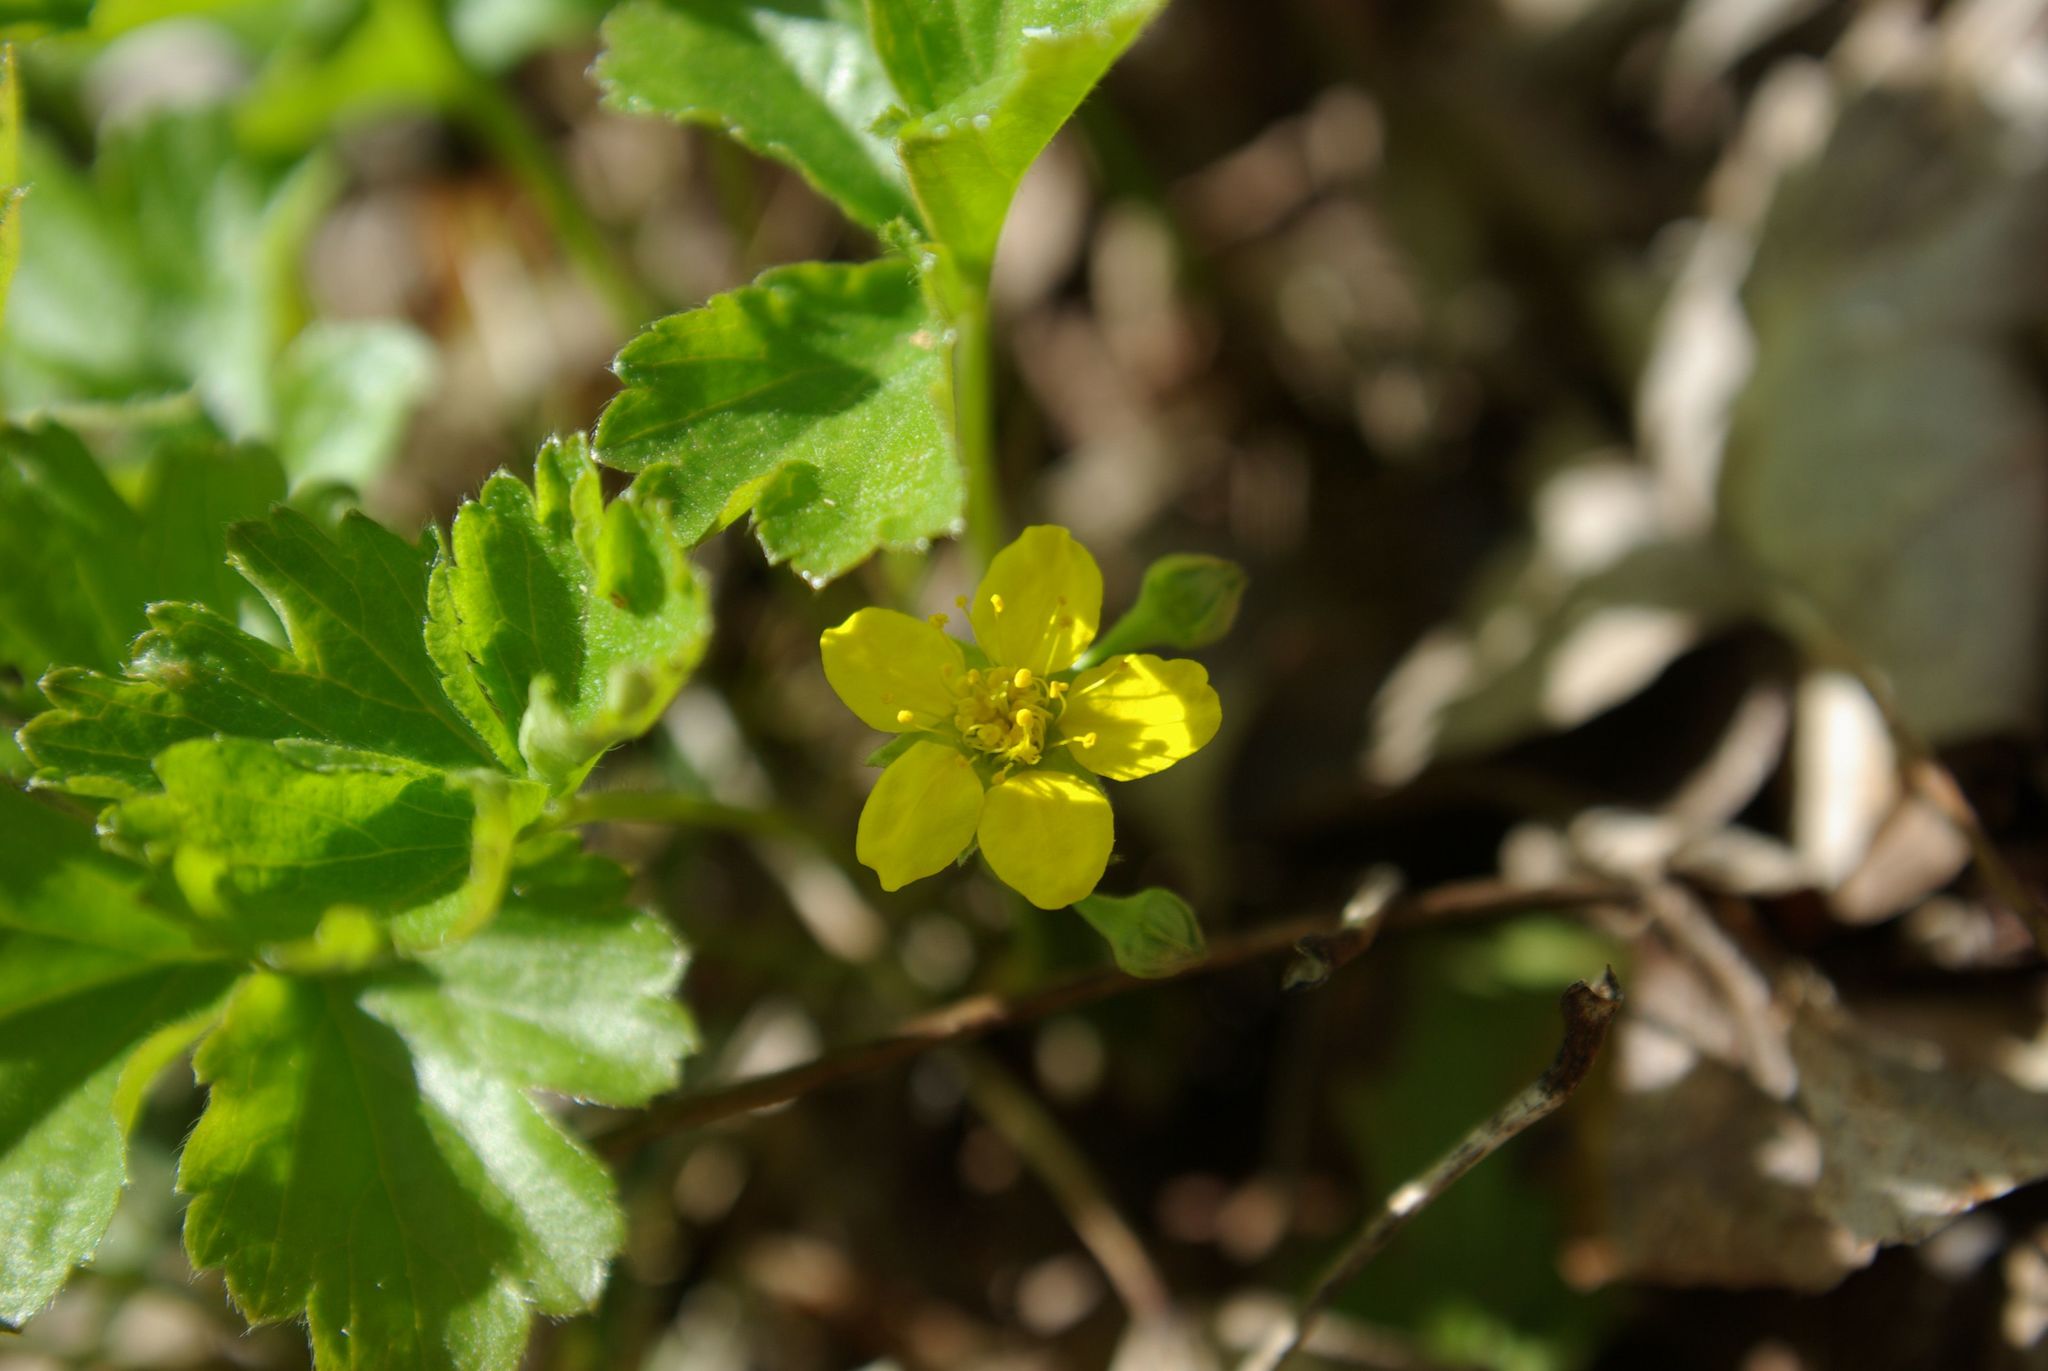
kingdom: Plantae
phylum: Tracheophyta
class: Magnoliopsida
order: Rosales
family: Rosaceae
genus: Geum
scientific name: Geum fragarioides
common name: Appalachian barren strawberry
